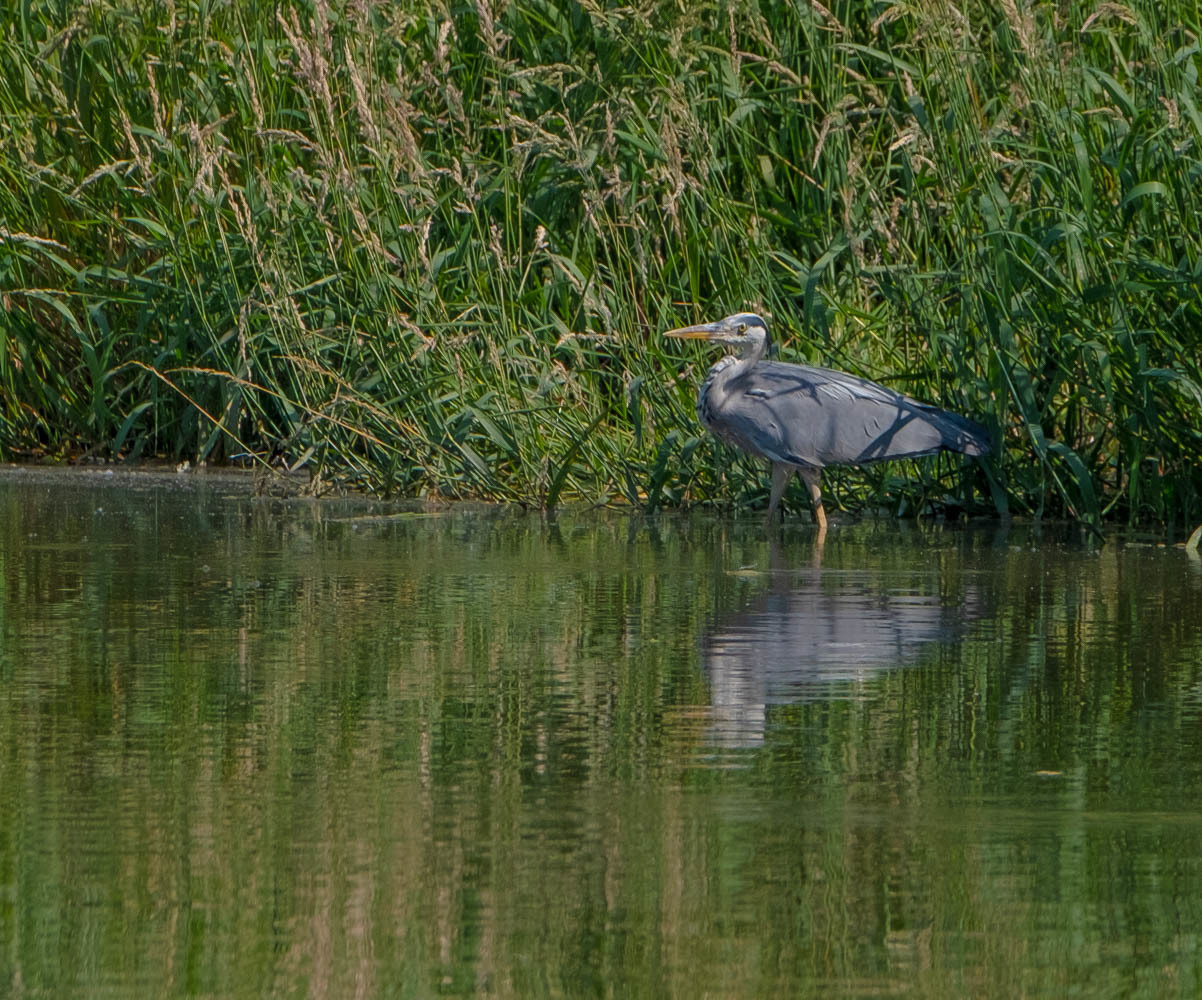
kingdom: Animalia
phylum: Chordata
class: Aves
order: Pelecaniformes
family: Ardeidae
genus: Ardea
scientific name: Ardea cinerea
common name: Grey heron
